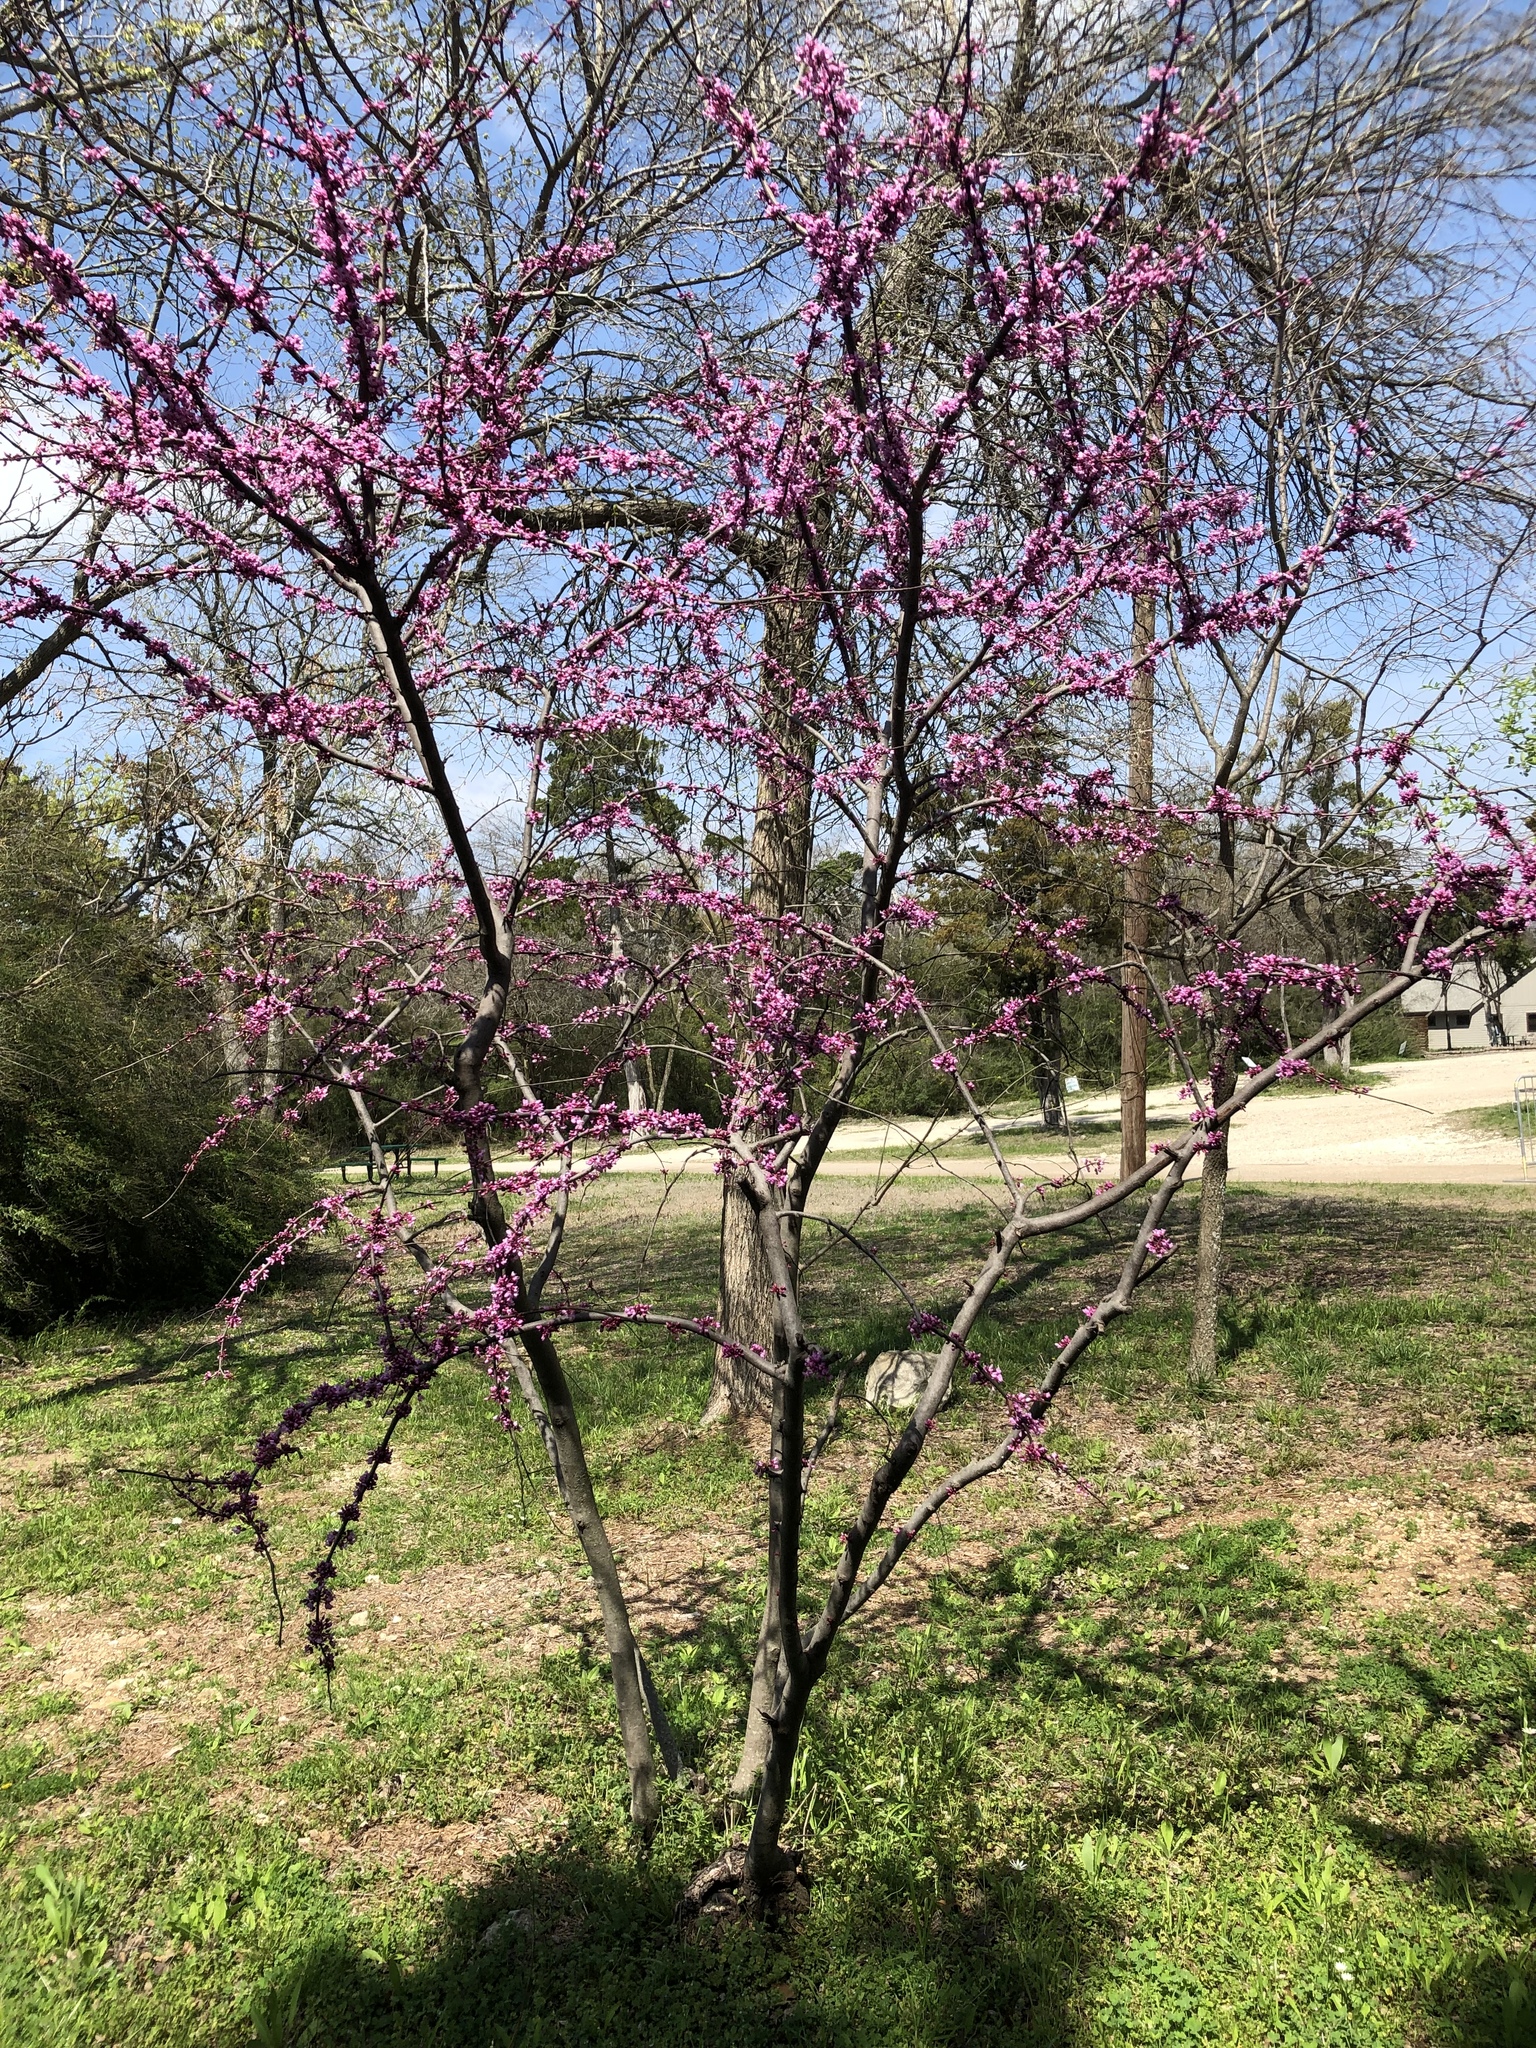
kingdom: Plantae
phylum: Tracheophyta
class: Magnoliopsida
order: Fabales
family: Fabaceae
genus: Cercis
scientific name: Cercis canadensis
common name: Eastern redbud
